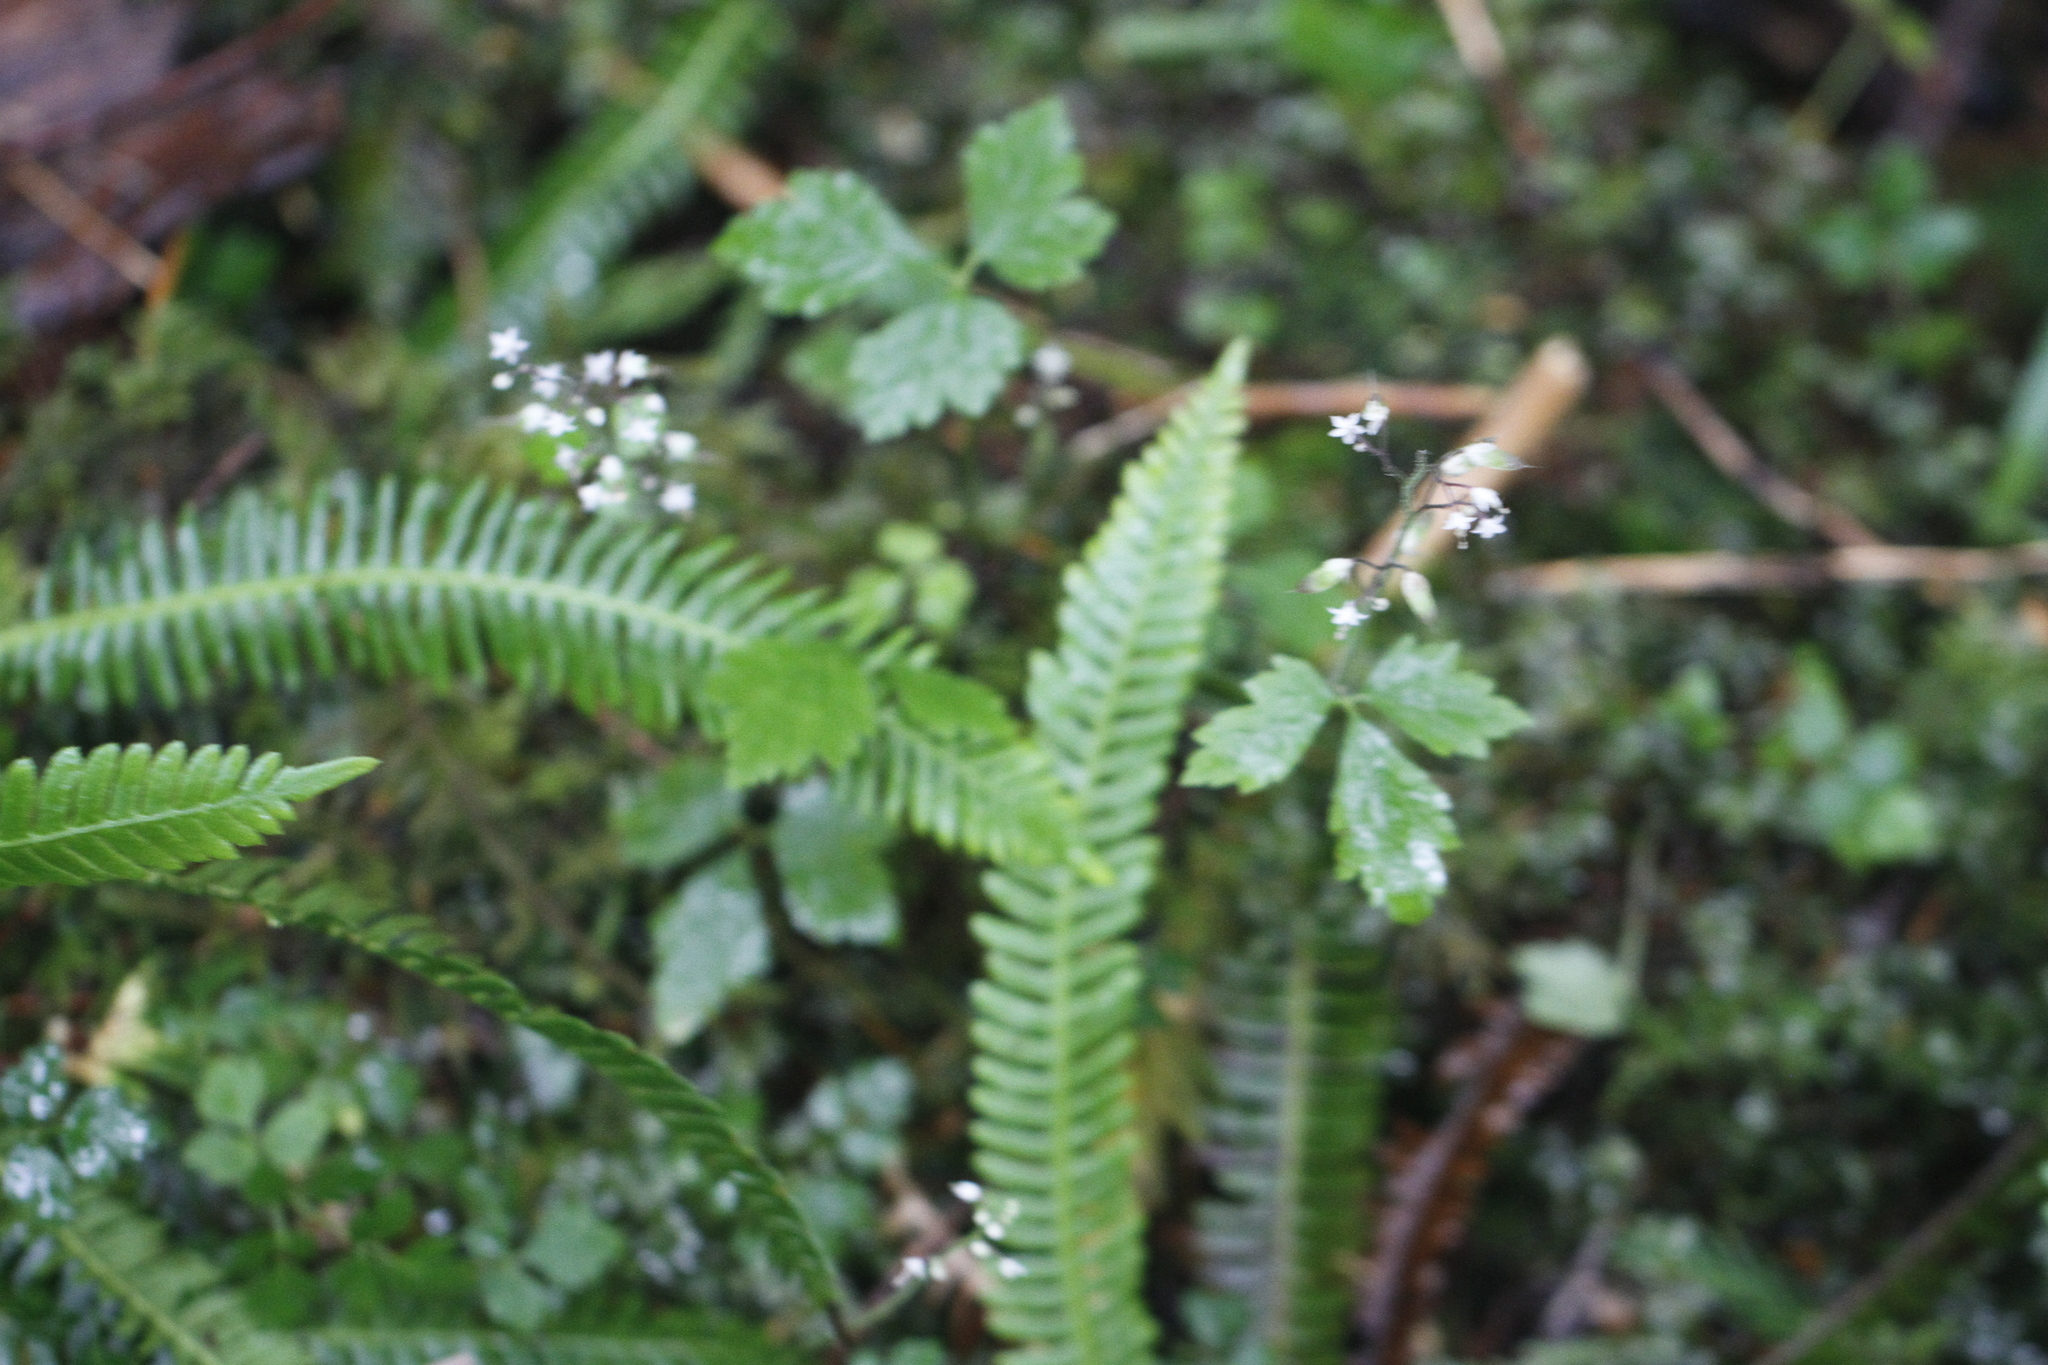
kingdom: Plantae
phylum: Tracheophyta
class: Polypodiopsida
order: Polypodiales
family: Blechnaceae
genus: Struthiopteris
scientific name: Struthiopteris spicant
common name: Deer fern
